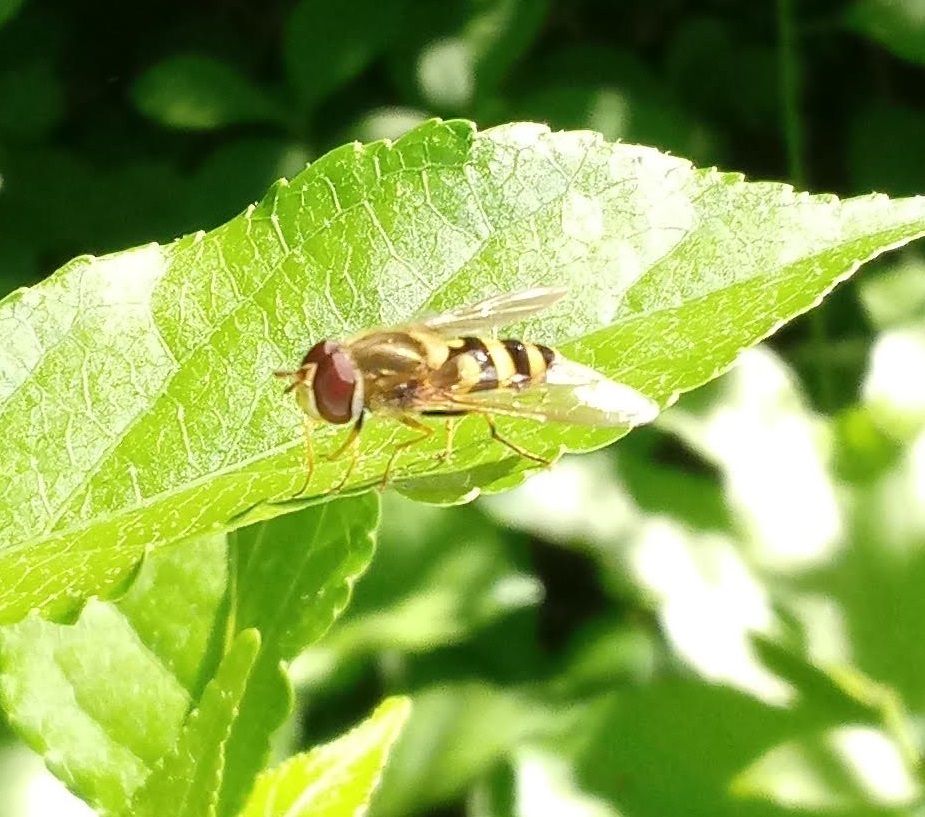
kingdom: Animalia
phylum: Arthropoda
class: Insecta
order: Diptera
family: Syrphidae
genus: Syrphus
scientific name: Syrphus
